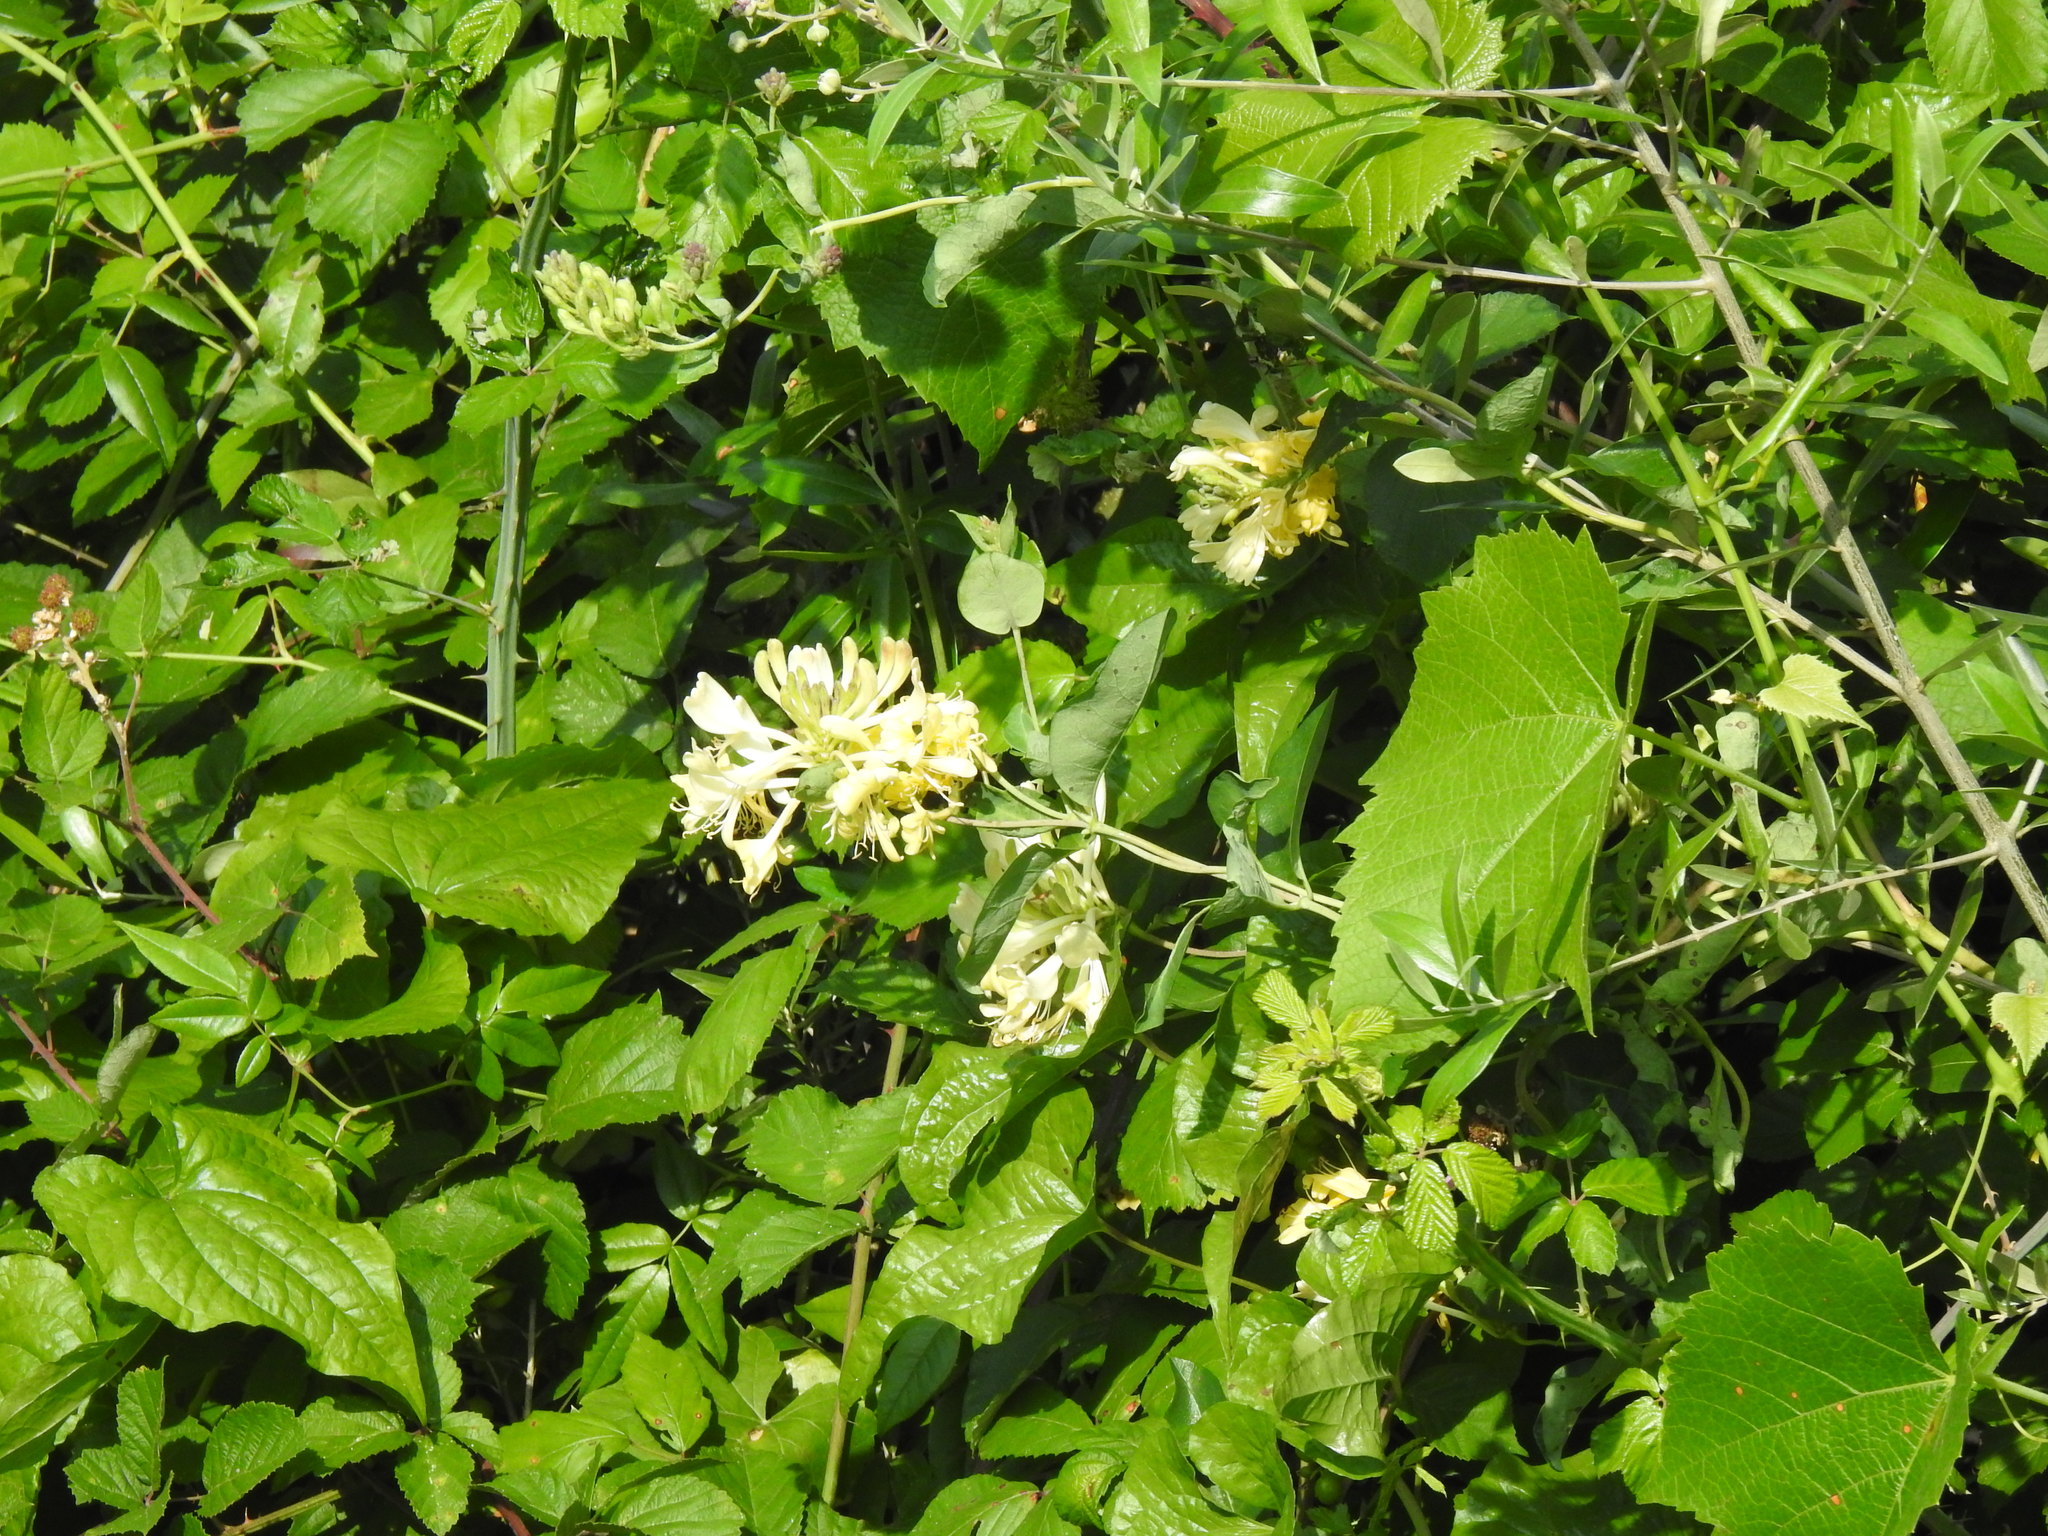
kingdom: Plantae
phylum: Tracheophyta
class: Magnoliopsida
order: Dipsacales
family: Caprifoliaceae
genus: Lonicera
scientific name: Lonicera periclymenum
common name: European honeysuckle
